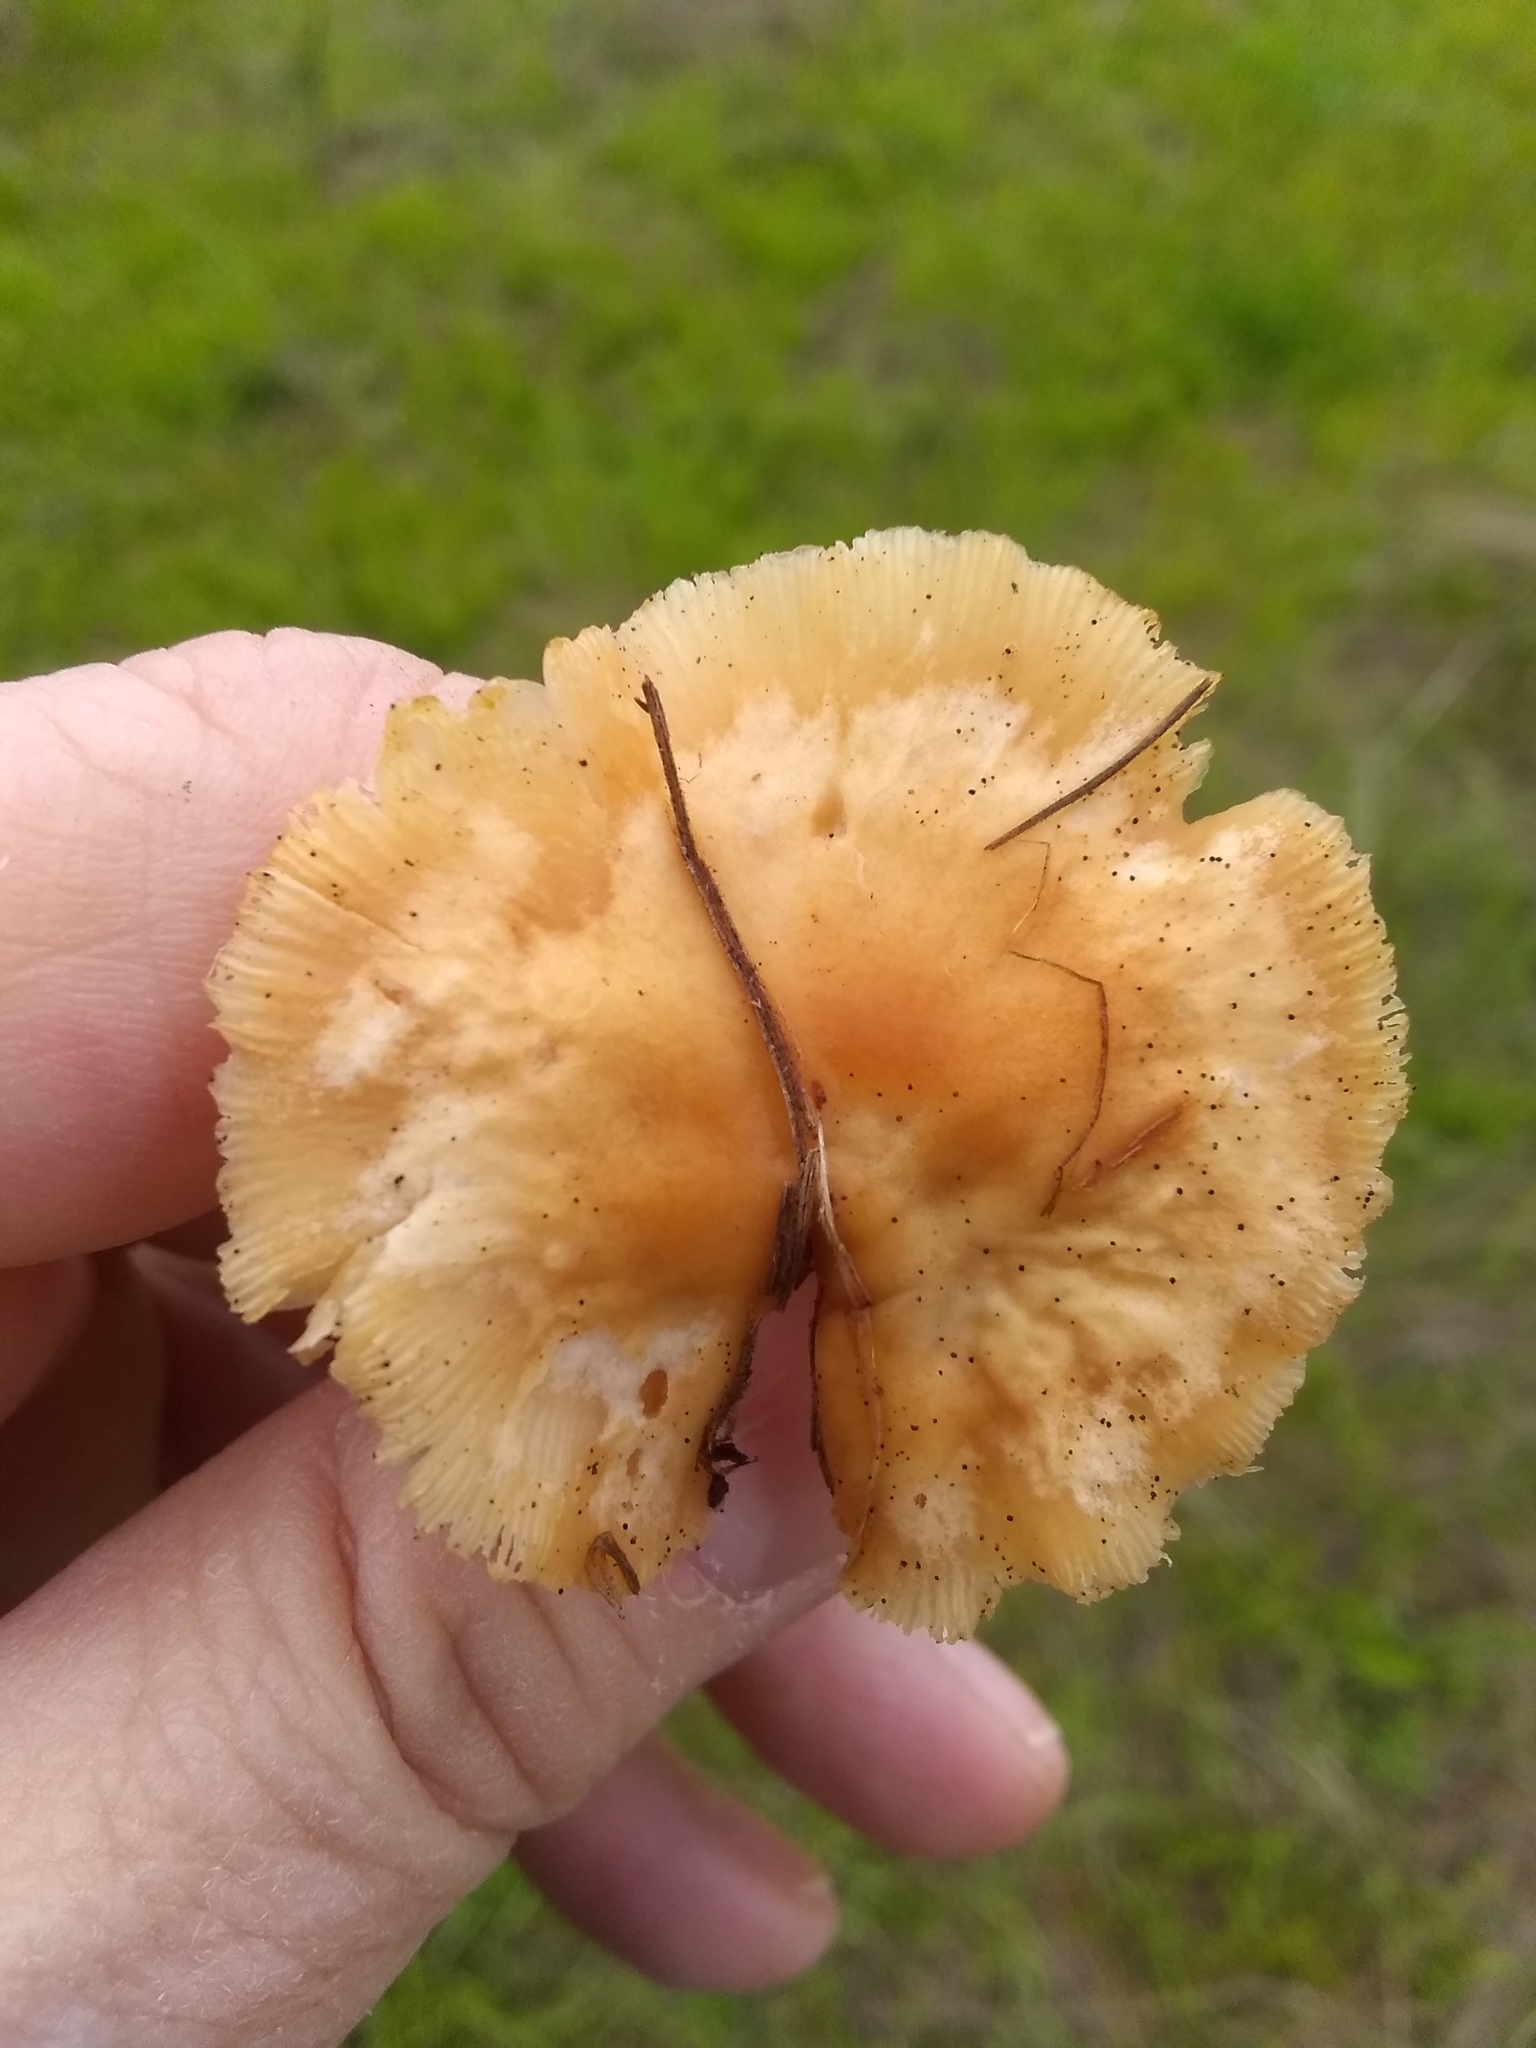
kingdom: Fungi
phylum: Basidiomycota
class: Agaricomycetes
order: Agaricales
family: Omphalotaceae
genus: Gymnopus
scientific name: Gymnopus dryophilus
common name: Penny top
